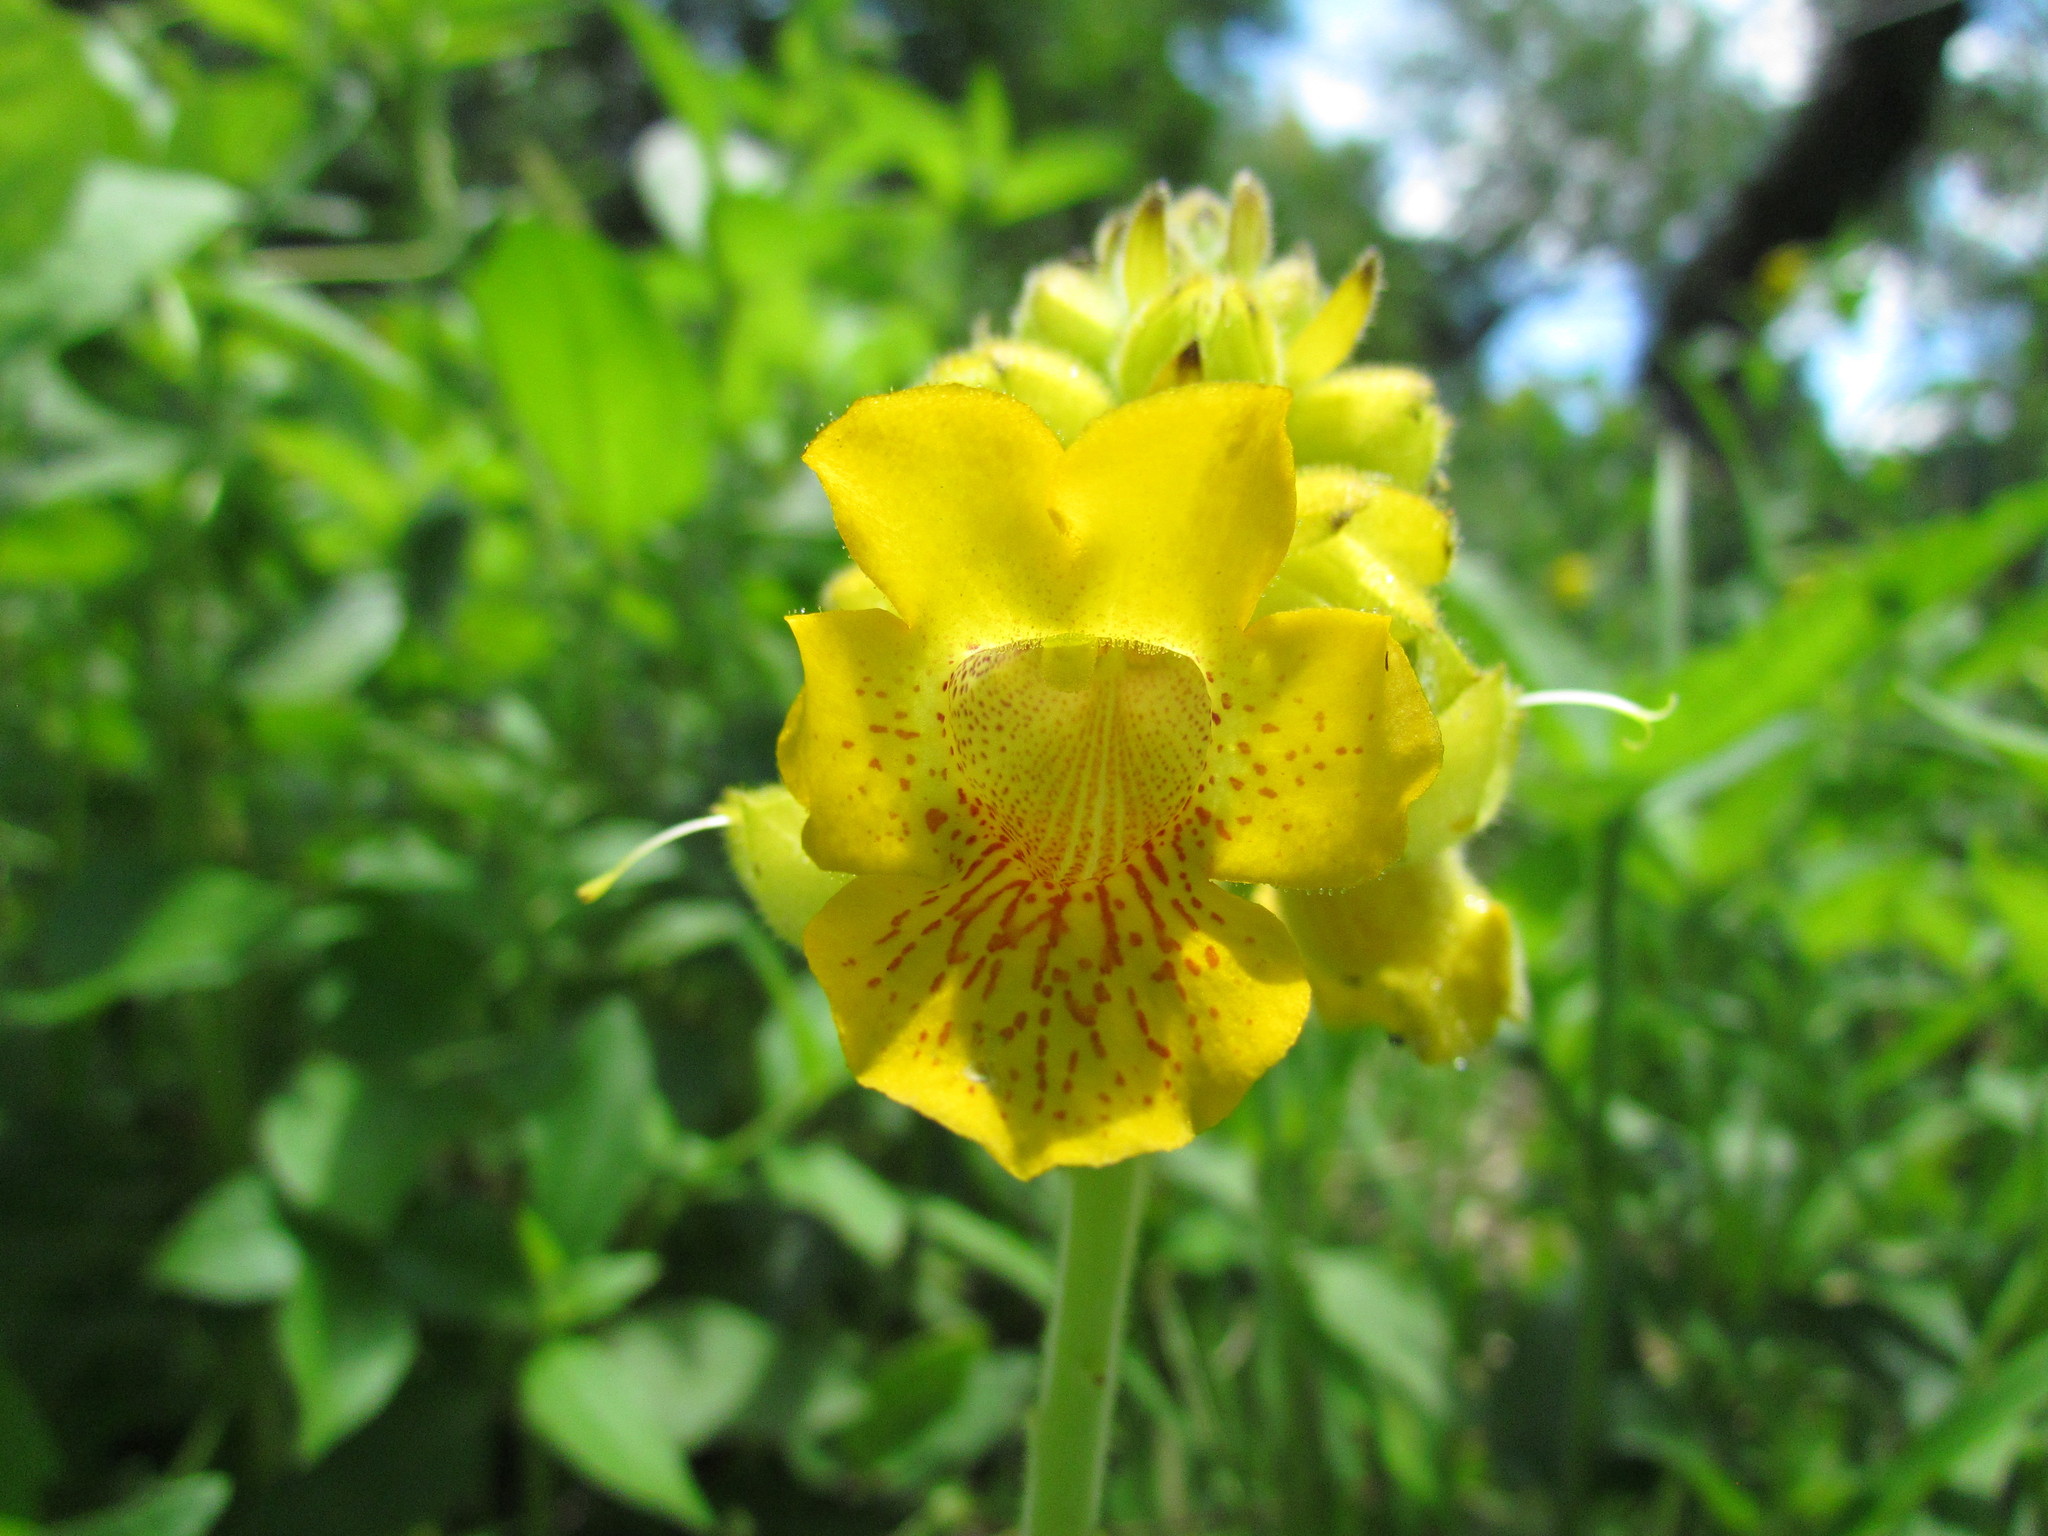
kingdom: Plantae
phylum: Tracheophyta
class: Magnoliopsida
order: Lamiales
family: Martyniaceae
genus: Ibicella
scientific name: Ibicella lutea
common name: Yellow unicorn-plant
